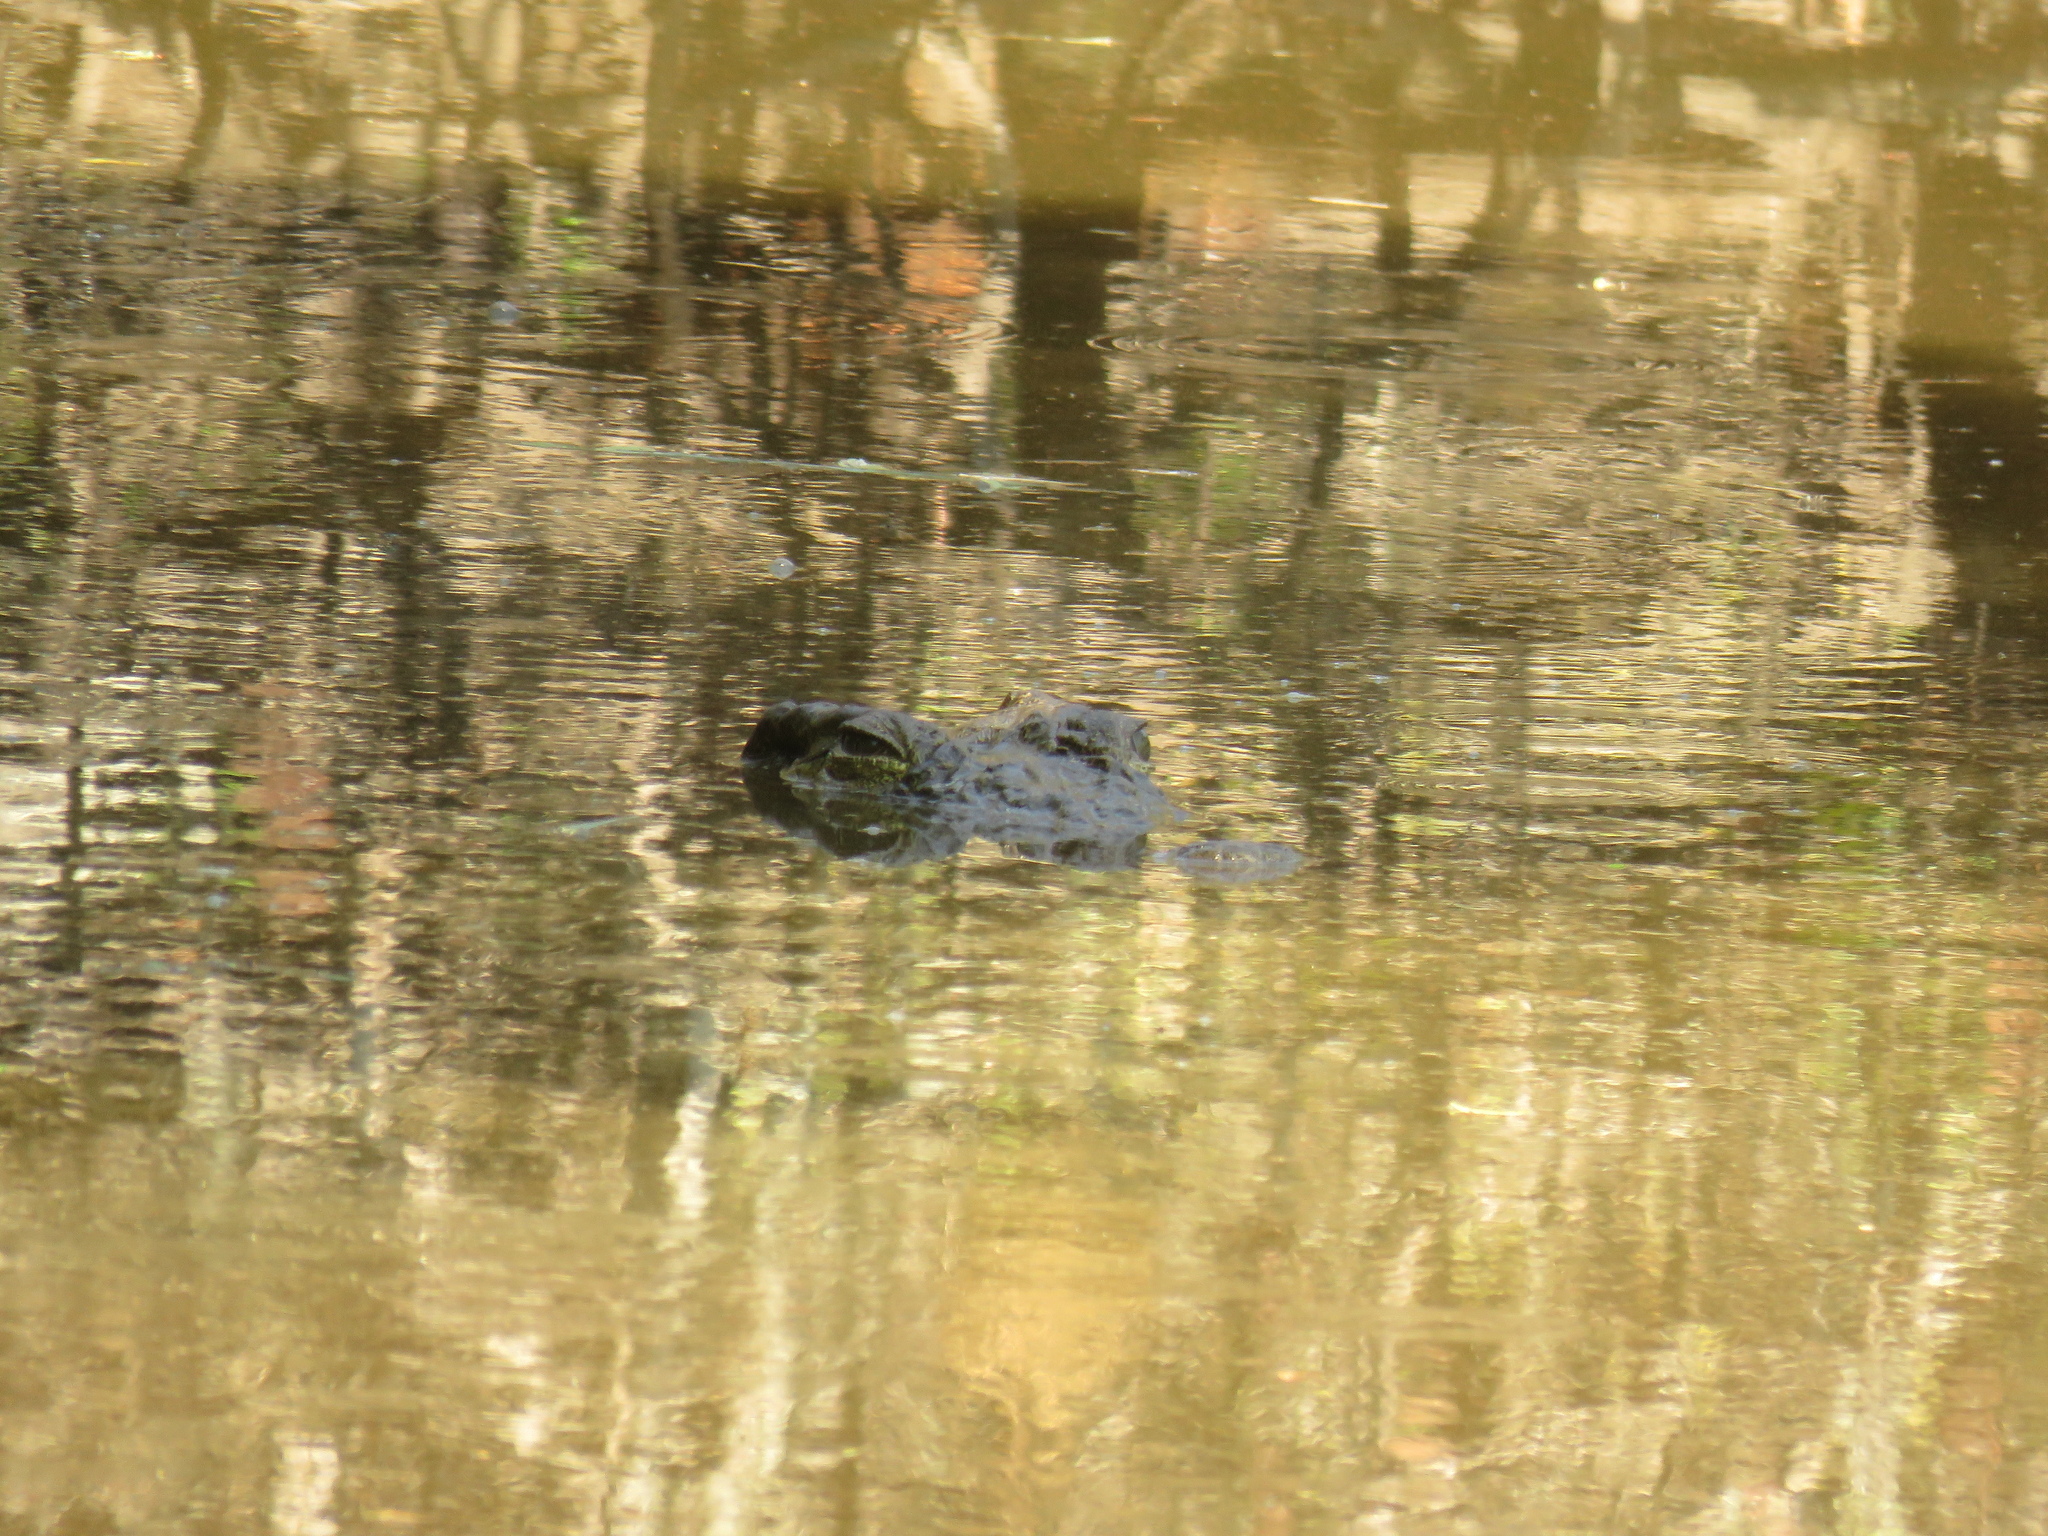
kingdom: Animalia
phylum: Chordata
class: Crocodylia
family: Crocodylidae
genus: Crocodylus
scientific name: Crocodylus niloticus
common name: Nile crocodile
